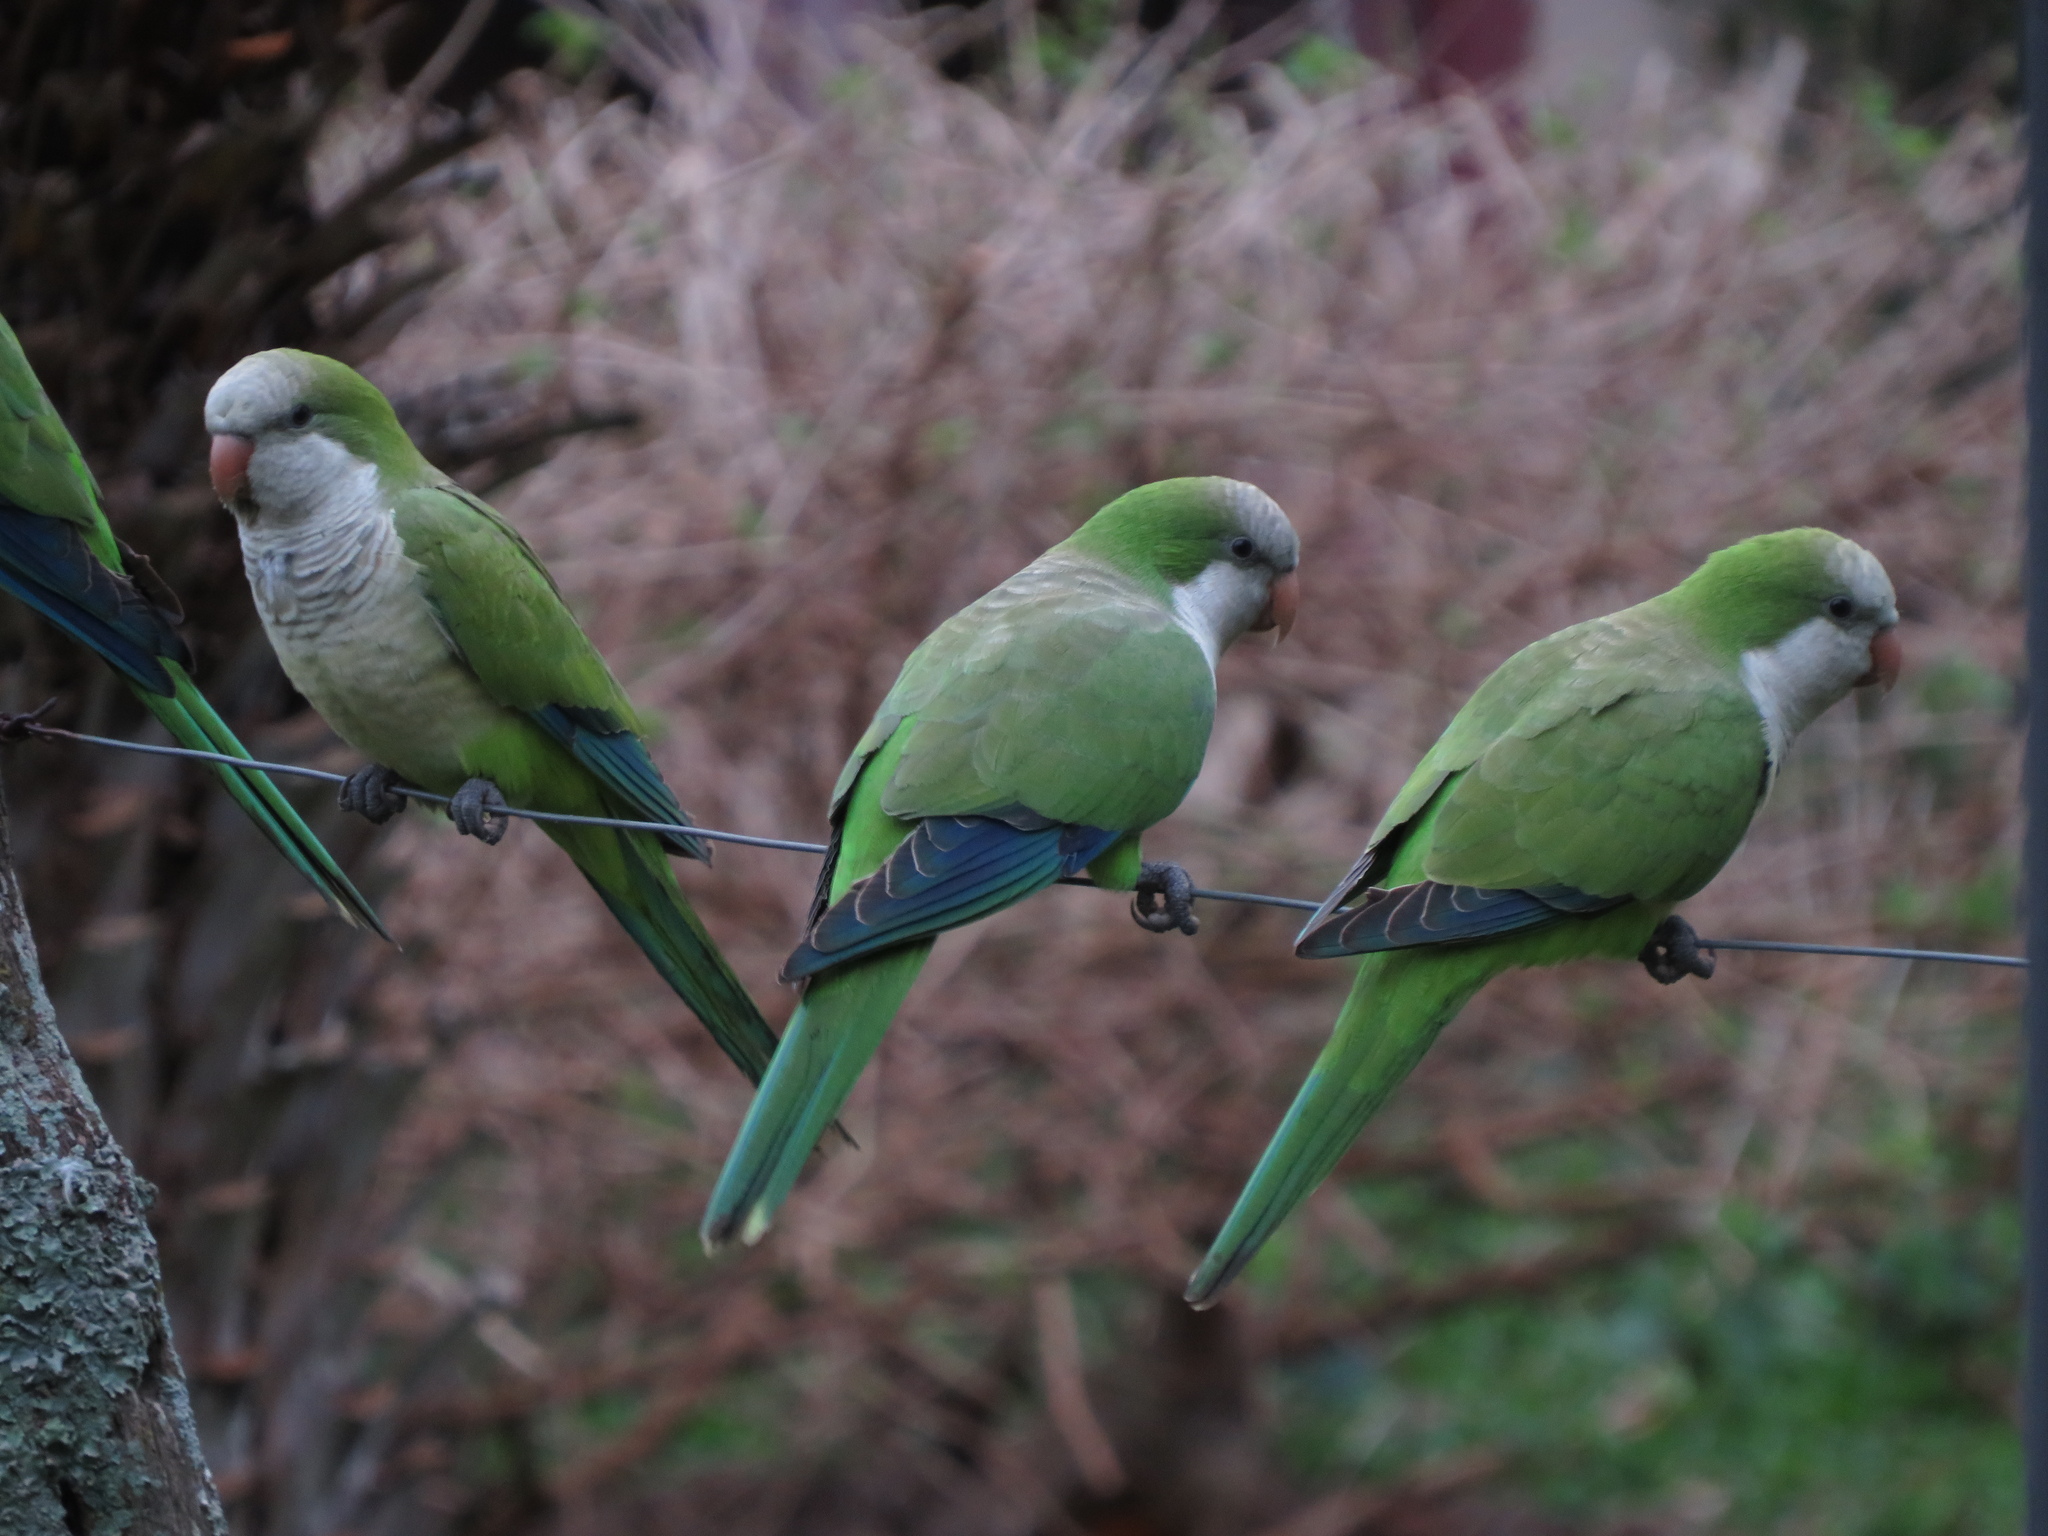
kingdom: Animalia
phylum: Chordata
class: Aves
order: Psittaciformes
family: Psittacidae
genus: Myiopsitta
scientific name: Myiopsitta monachus
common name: Monk parakeet
